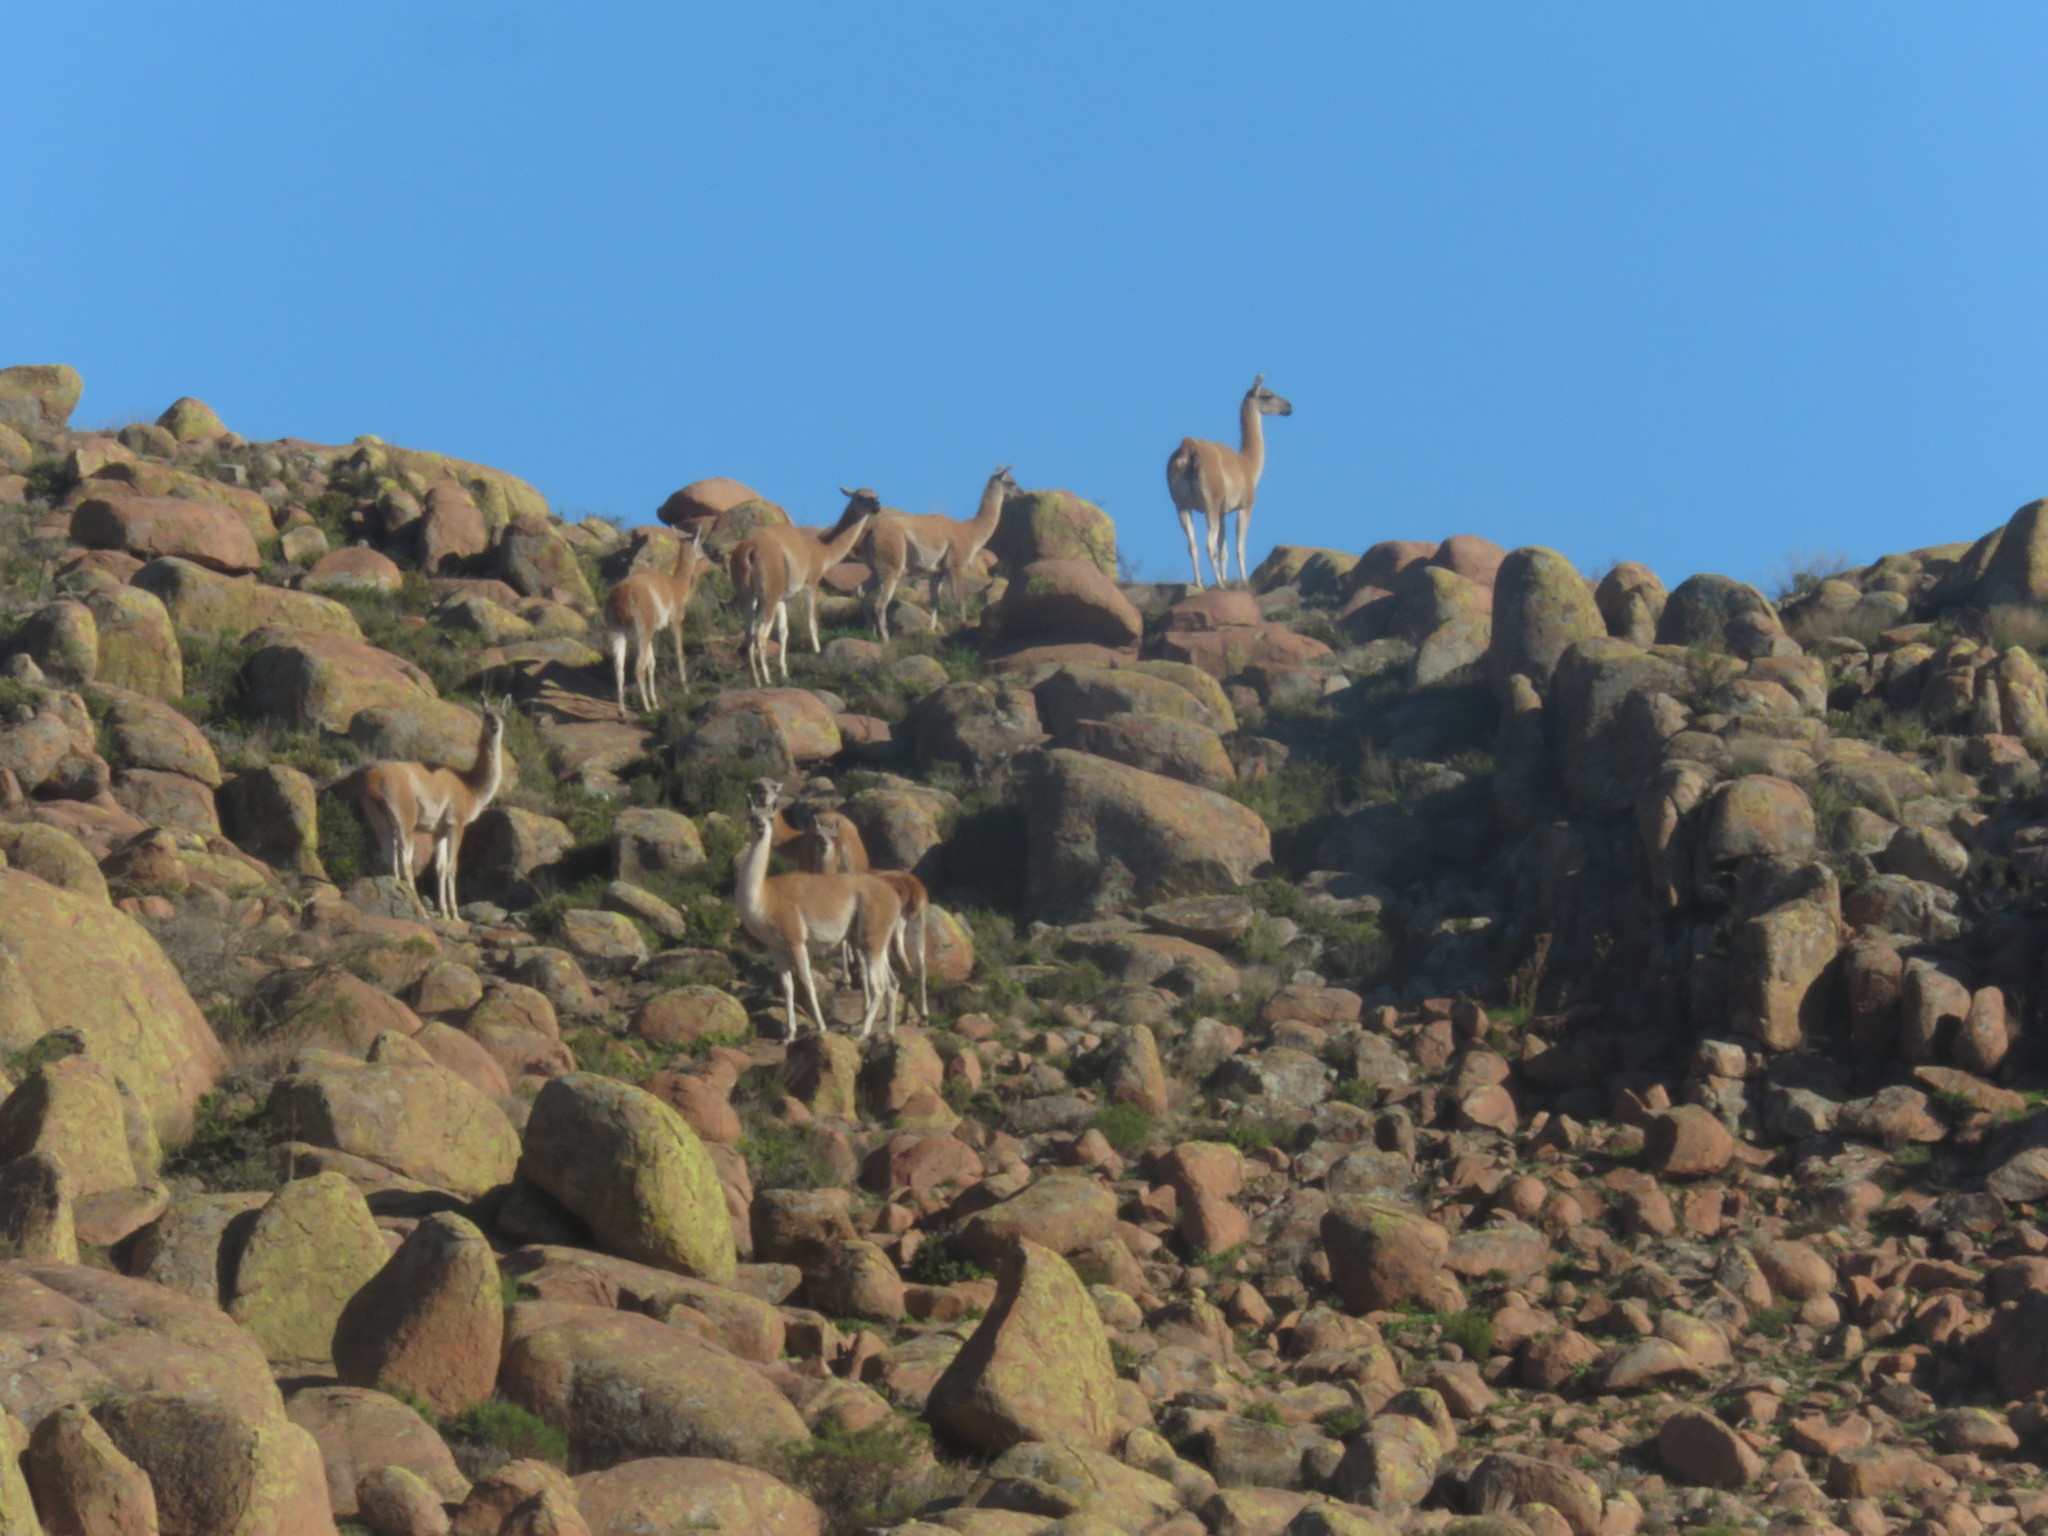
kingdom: Animalia
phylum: Chordata
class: Mammalia
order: Artiodactyla
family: Camelidae
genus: Lama
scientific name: Lama glama
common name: Llama
